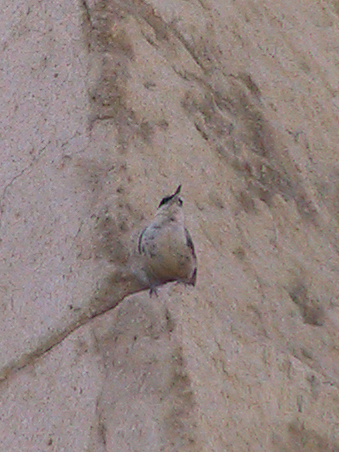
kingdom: Animalia
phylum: Chordata
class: Aves
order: Passeriformes
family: Sittidae
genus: Sitta
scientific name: Sitta neumayer
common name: Western rock nuthatch
